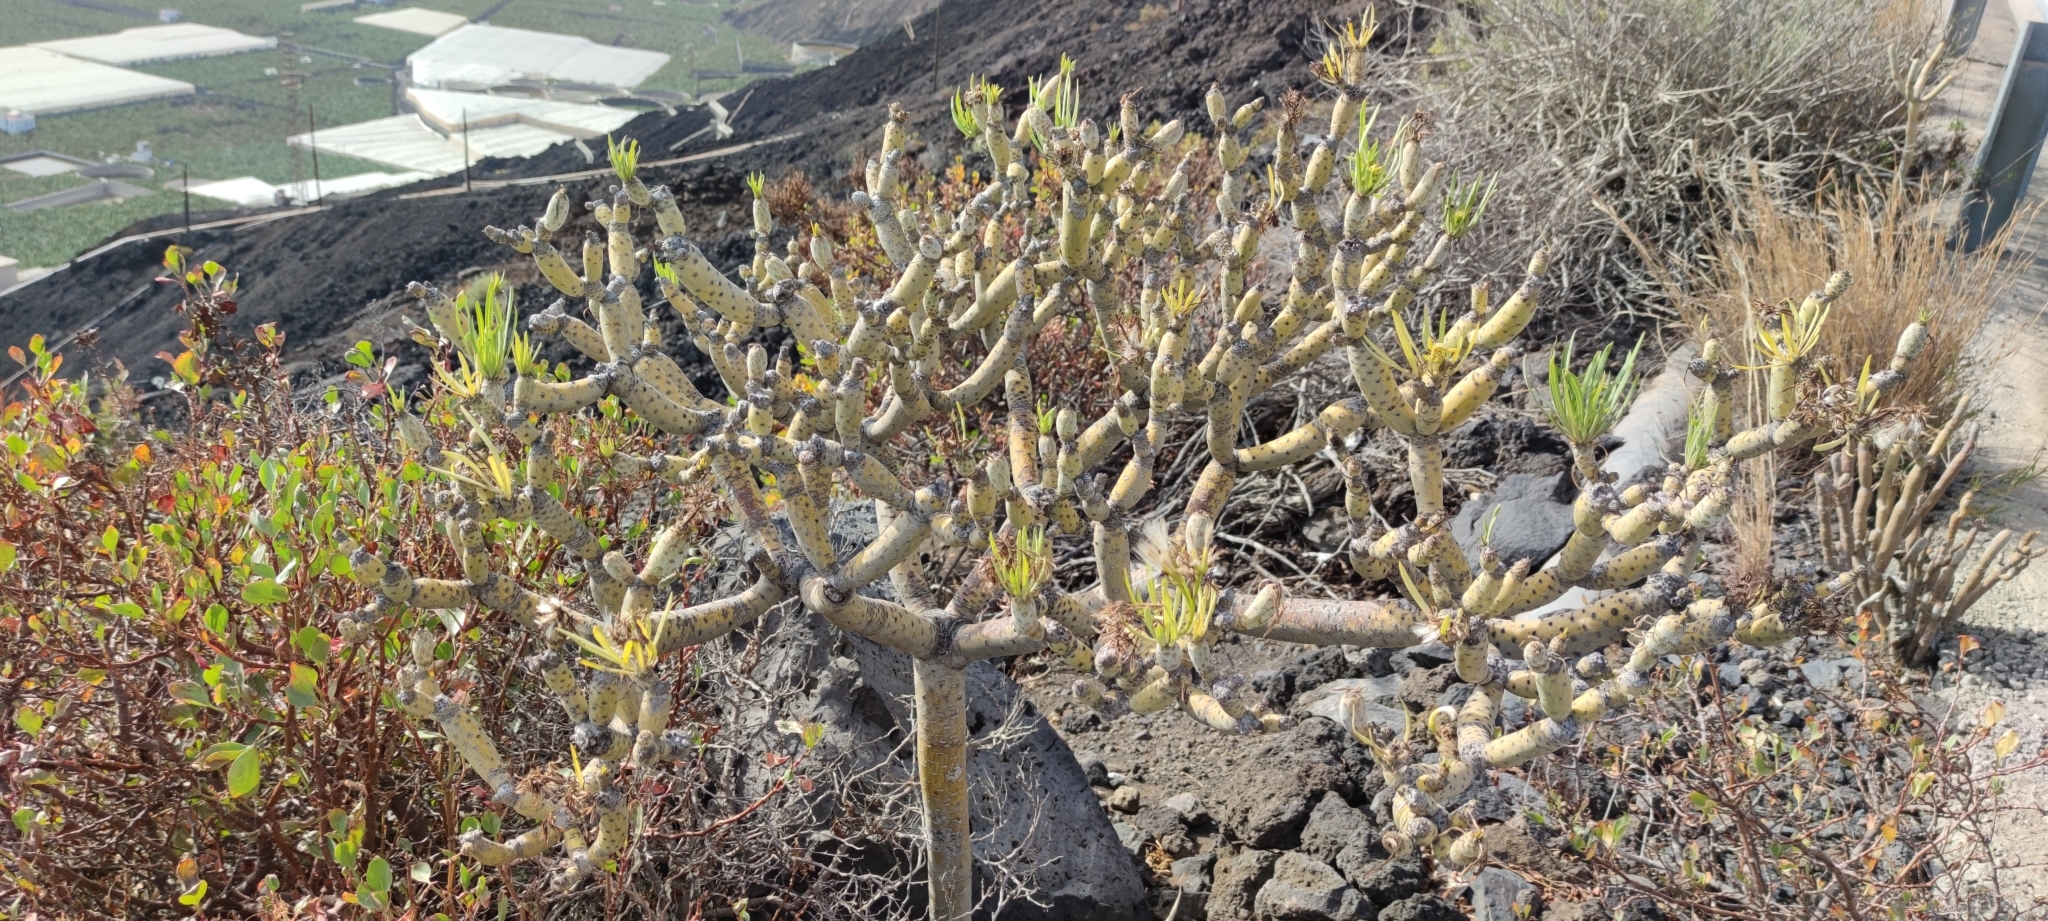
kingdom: Plantae
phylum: Tracheophyta
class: Magnoliopsida
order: Asterales
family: Asteraceae
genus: Kleinia
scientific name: Kleinia neriifolia
